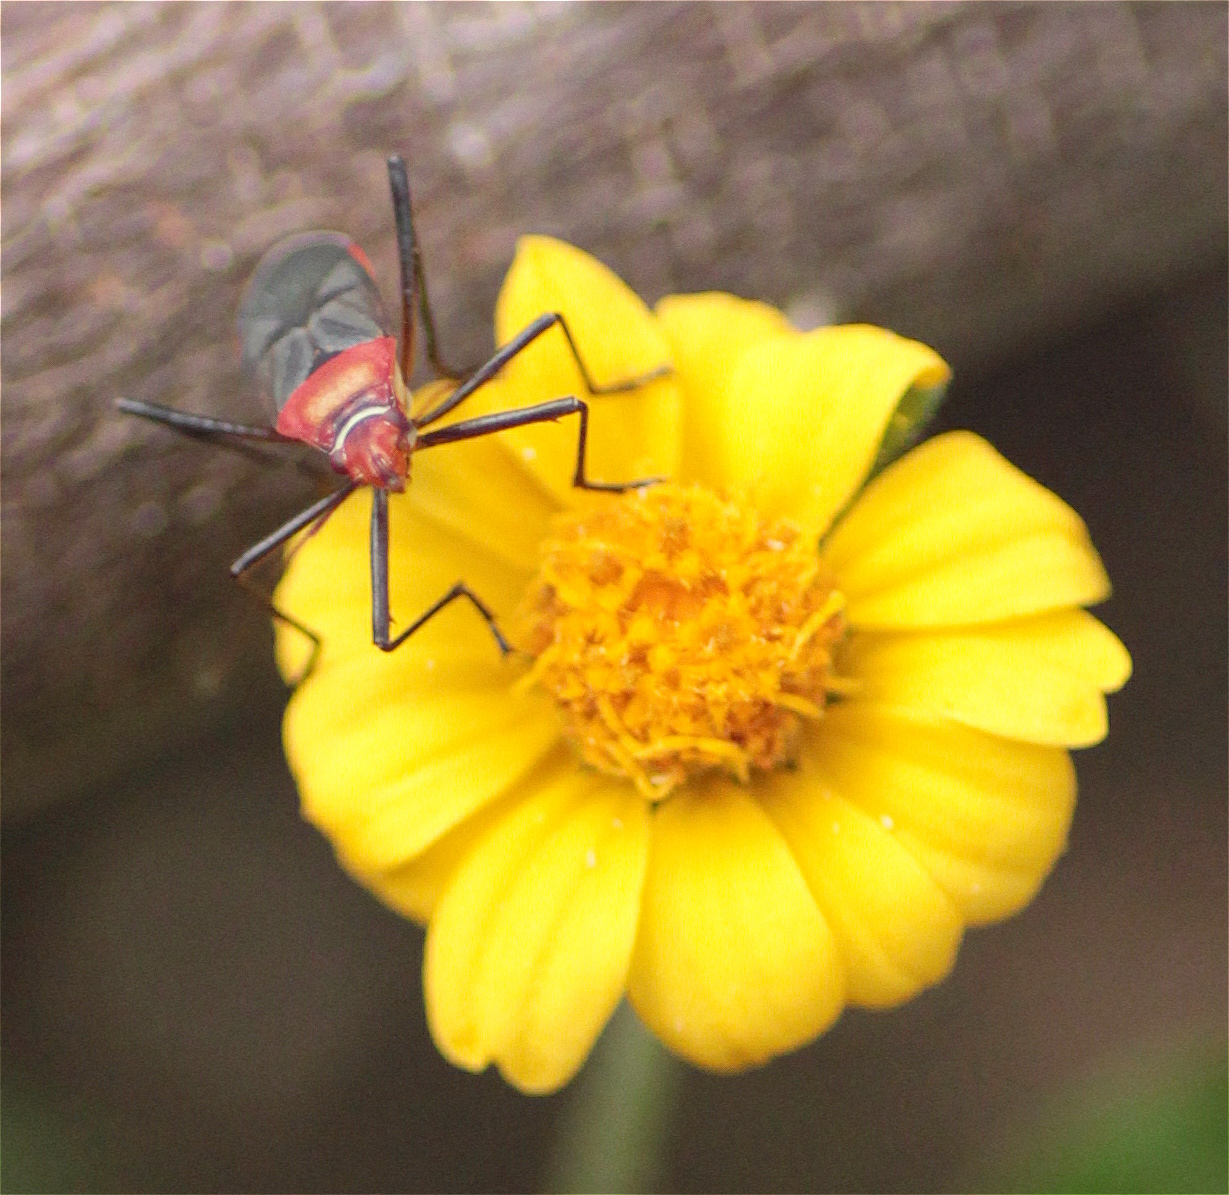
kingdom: Animalia
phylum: Arthropoda
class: Insecta
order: Hemiptera
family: Pyrrhocoridae
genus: Dysdercus
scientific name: Dysdercus collaris
